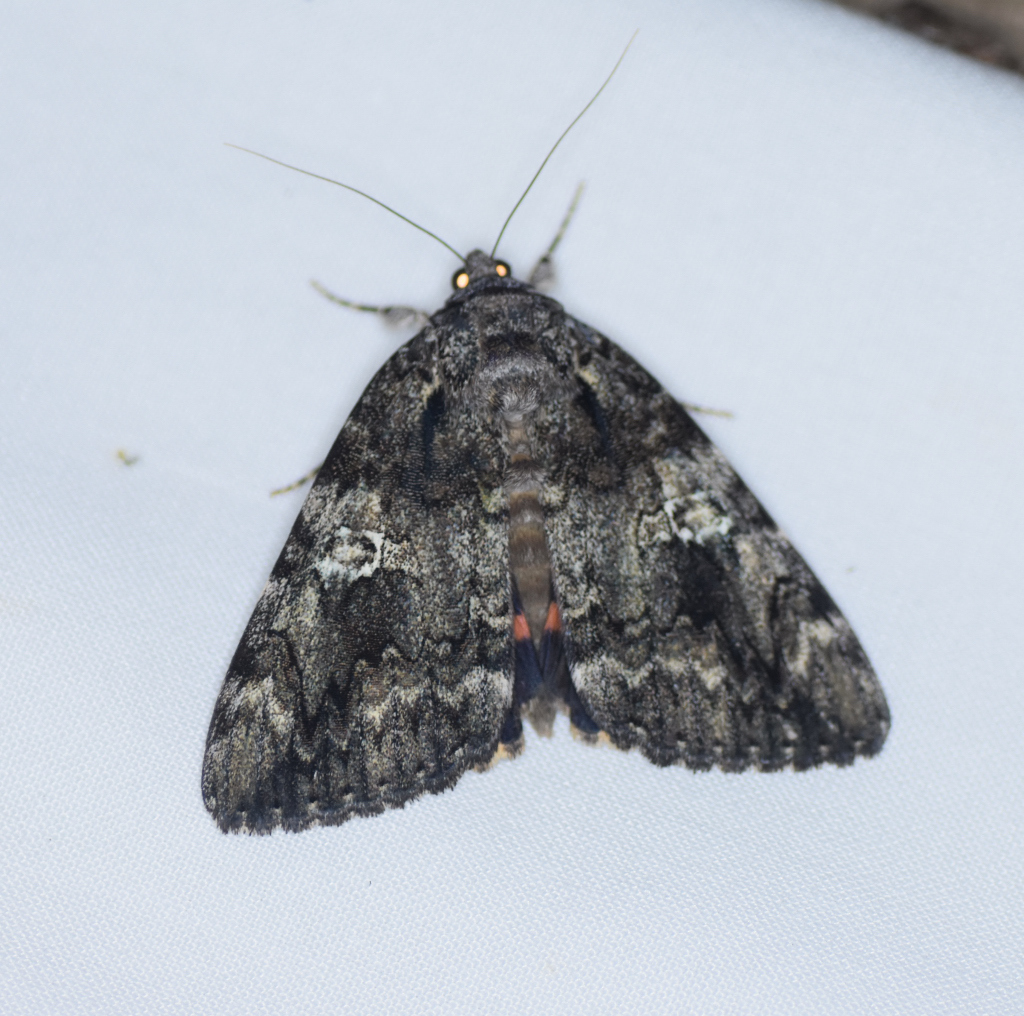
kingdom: Animalia
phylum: Arthropoda
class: Insecta
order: Lepidoptera
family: Erebidae
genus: Catocala
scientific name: Catocala ilia
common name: Ilia underwing
